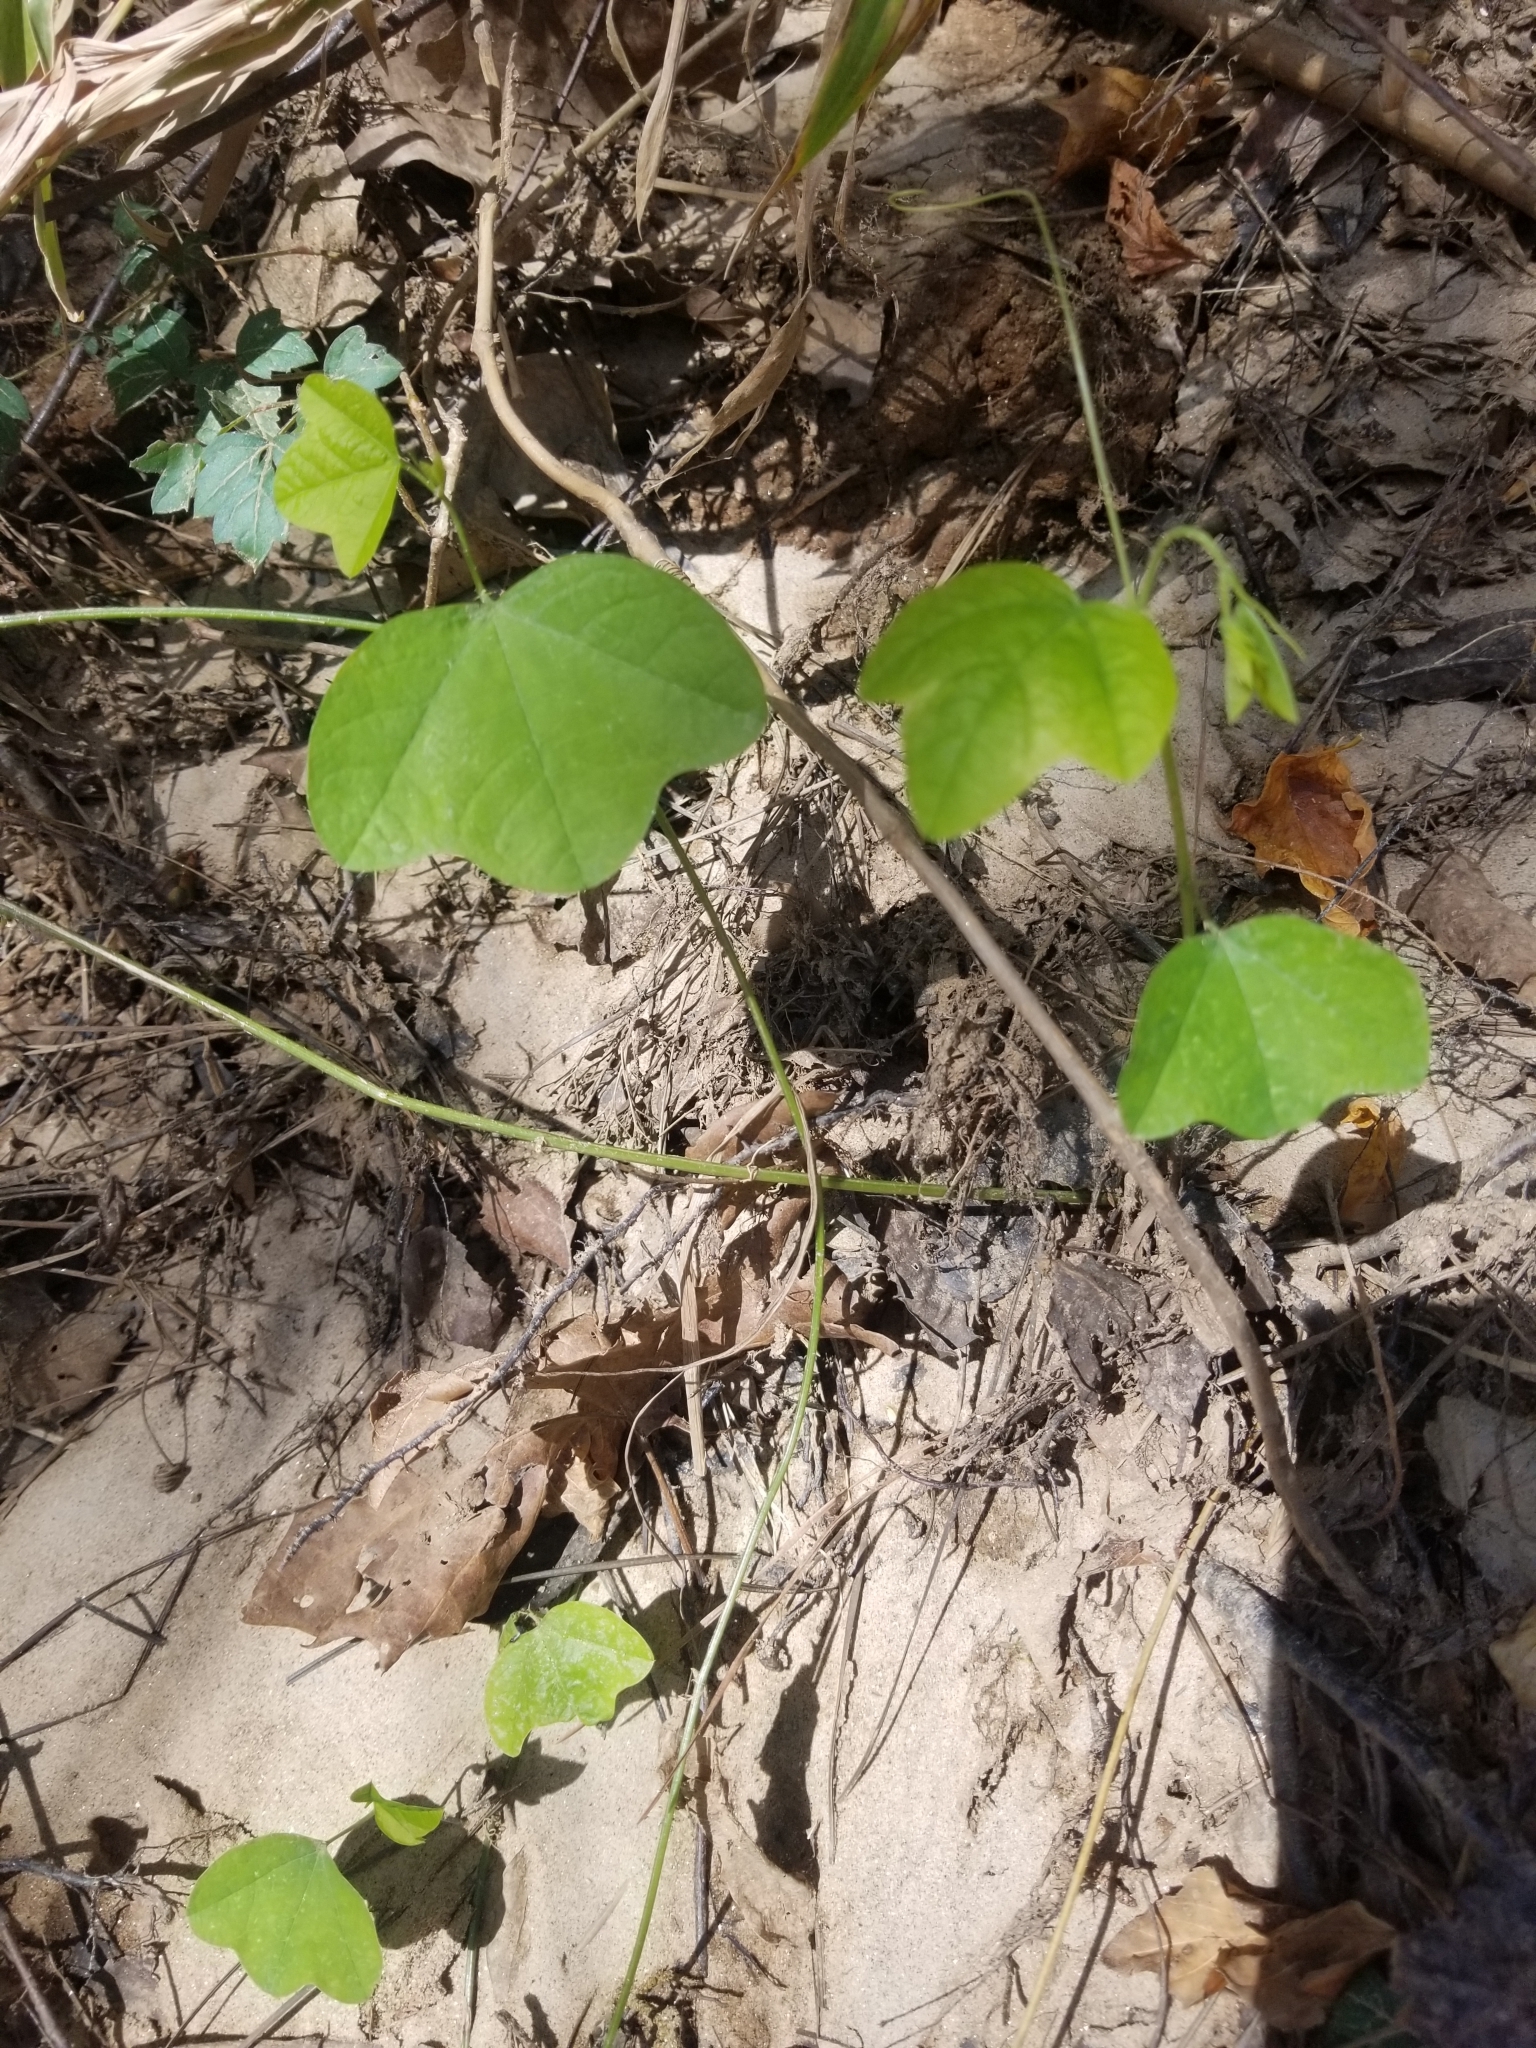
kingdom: Plantae
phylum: Tracheophyta
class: Magnoliopsida
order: Malpighiales
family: Passifloraceae
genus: Passiflora
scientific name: Passiflora lutea
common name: Yellow passionflower
